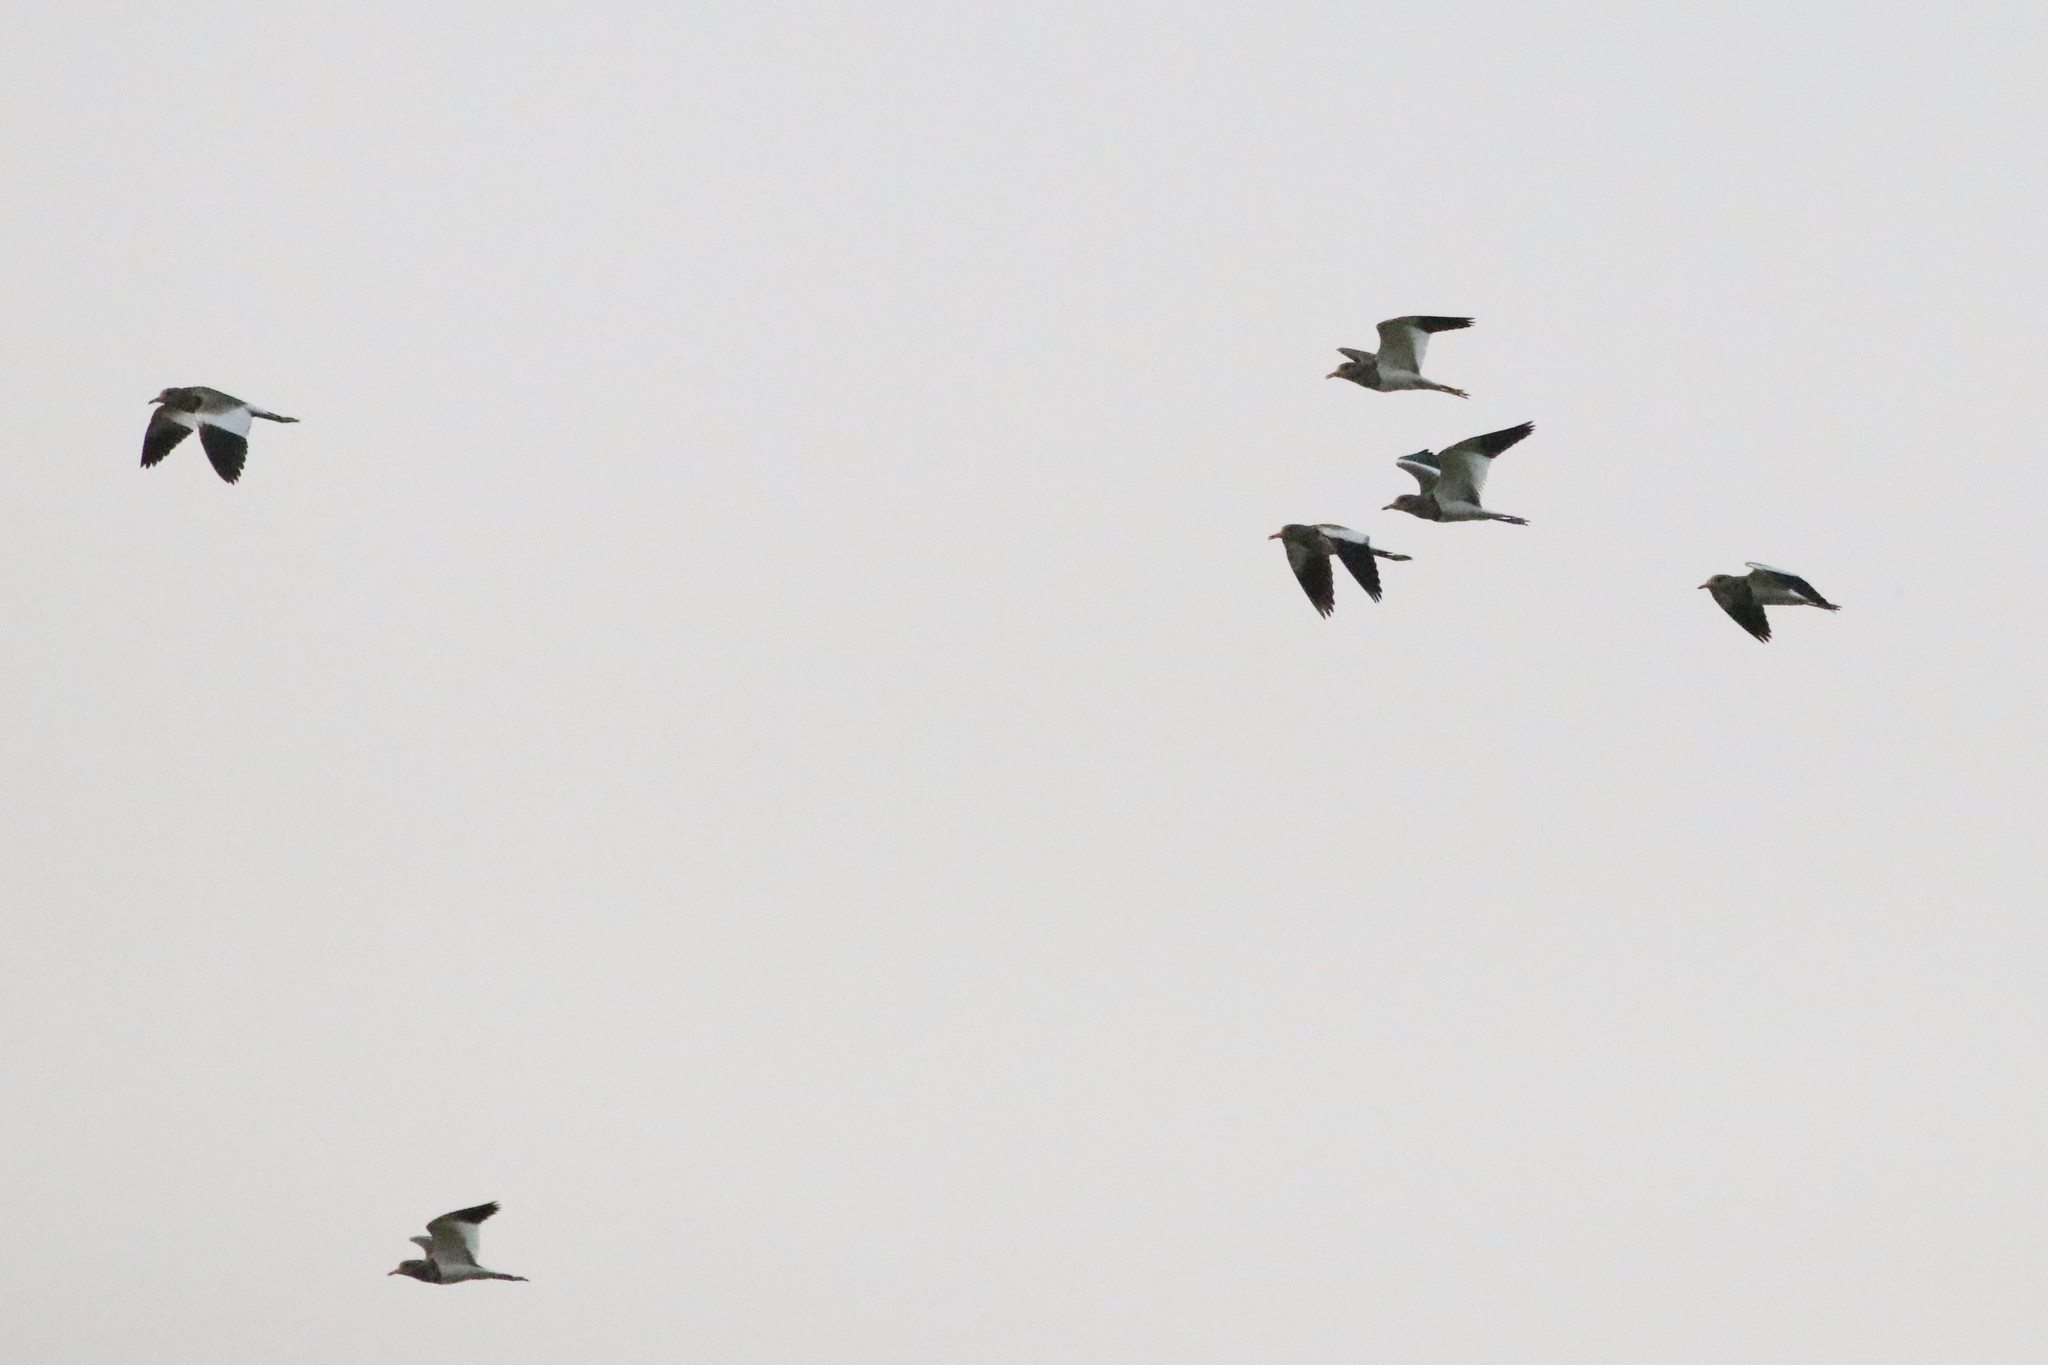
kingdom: Animalia
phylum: Chordata
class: Aves
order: Charadriiformes
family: Charadriidae
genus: Vanellus
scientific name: Vanellus cinereus
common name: Grey-headed lapwing
